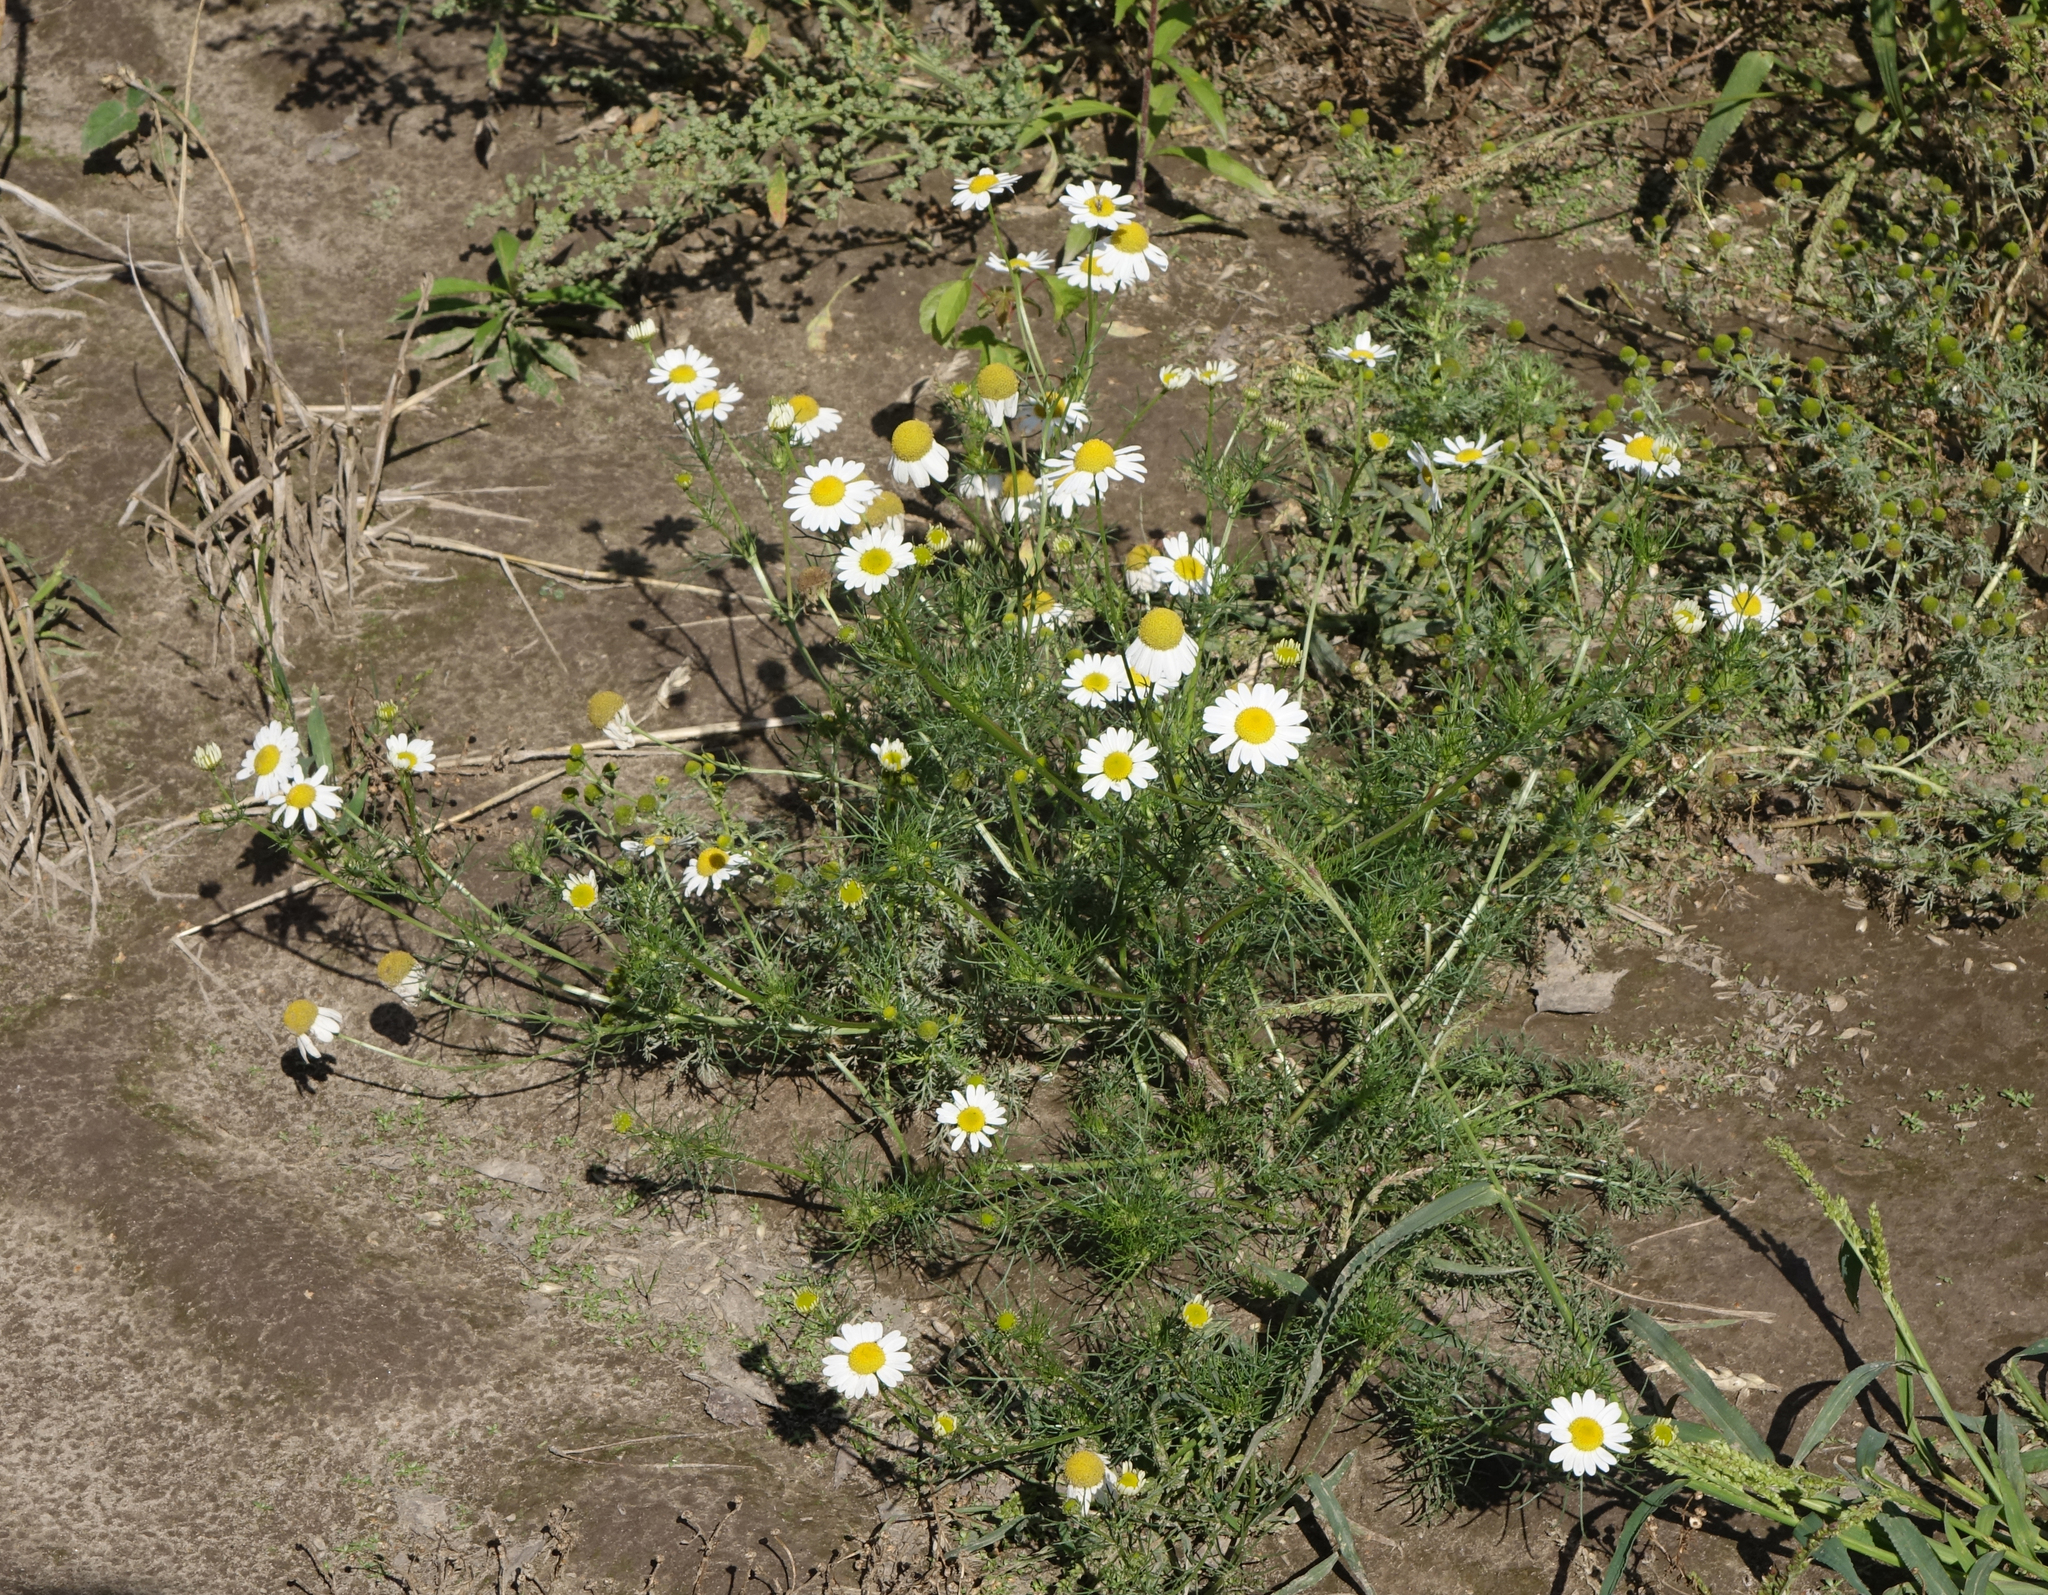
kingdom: Plantae
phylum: Tracheophyta
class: Magnoliopsida
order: Asterales
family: Asteraceae
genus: Tripleurospermum
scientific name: Tripleurospermum inodorum
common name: Scentless mayweed
